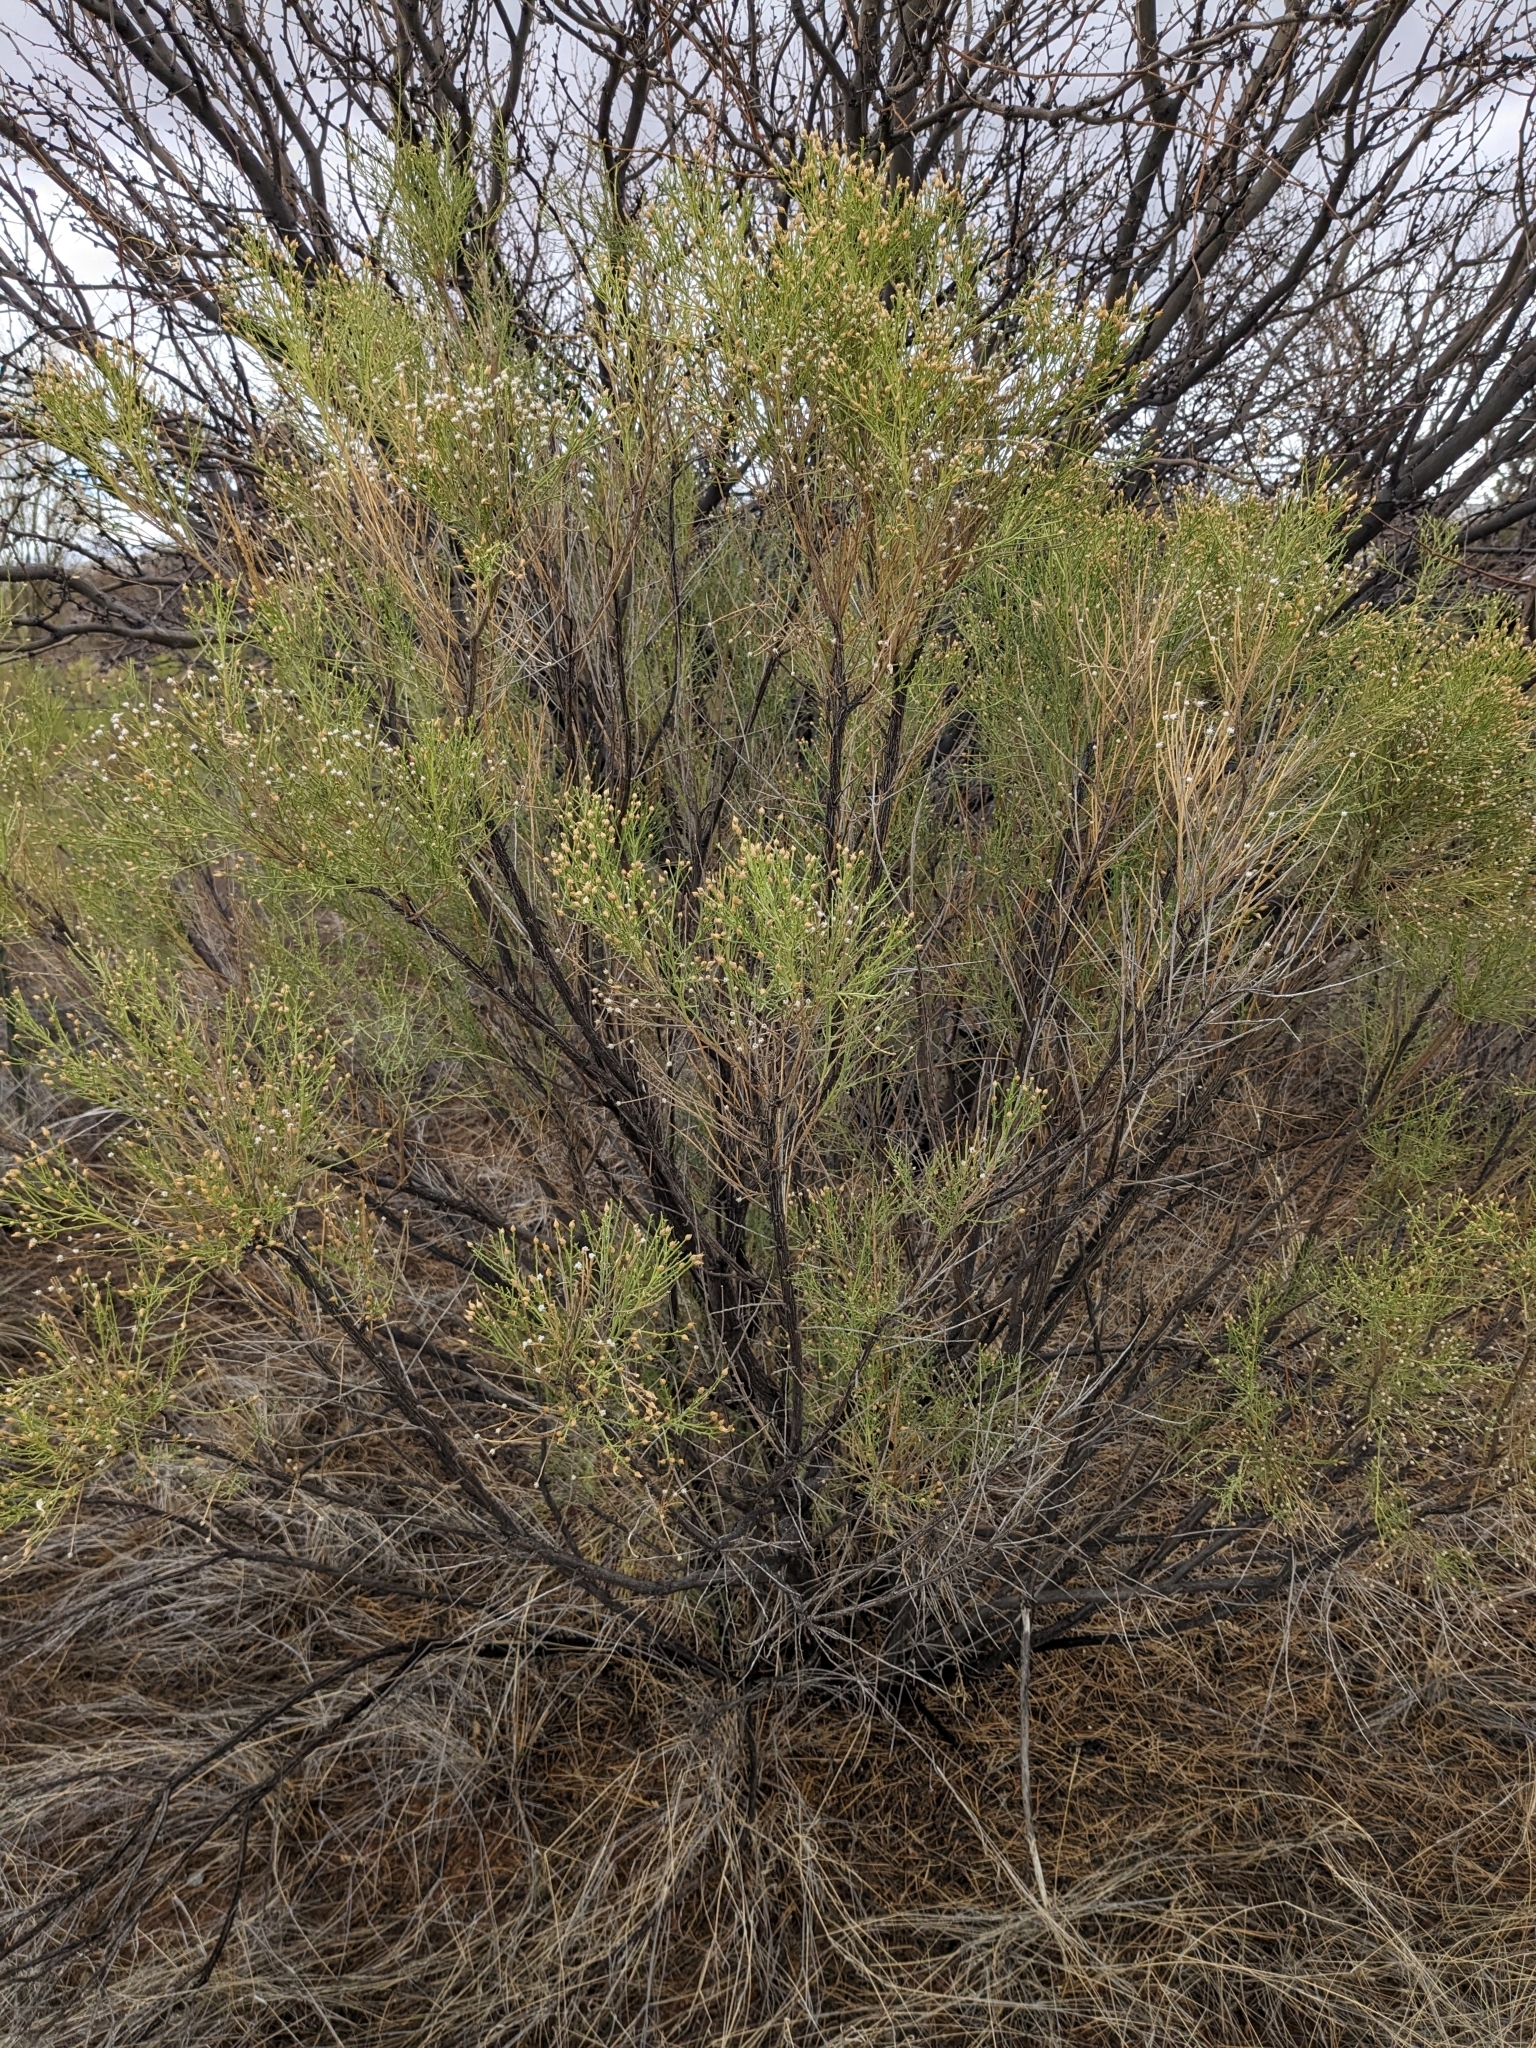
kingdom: Plantae
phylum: Tracheophyta
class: Magnoliopsida
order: Asterales
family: Asteraceae
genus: Baccharis
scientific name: Baccharis sarothroides
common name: Desert-broom
